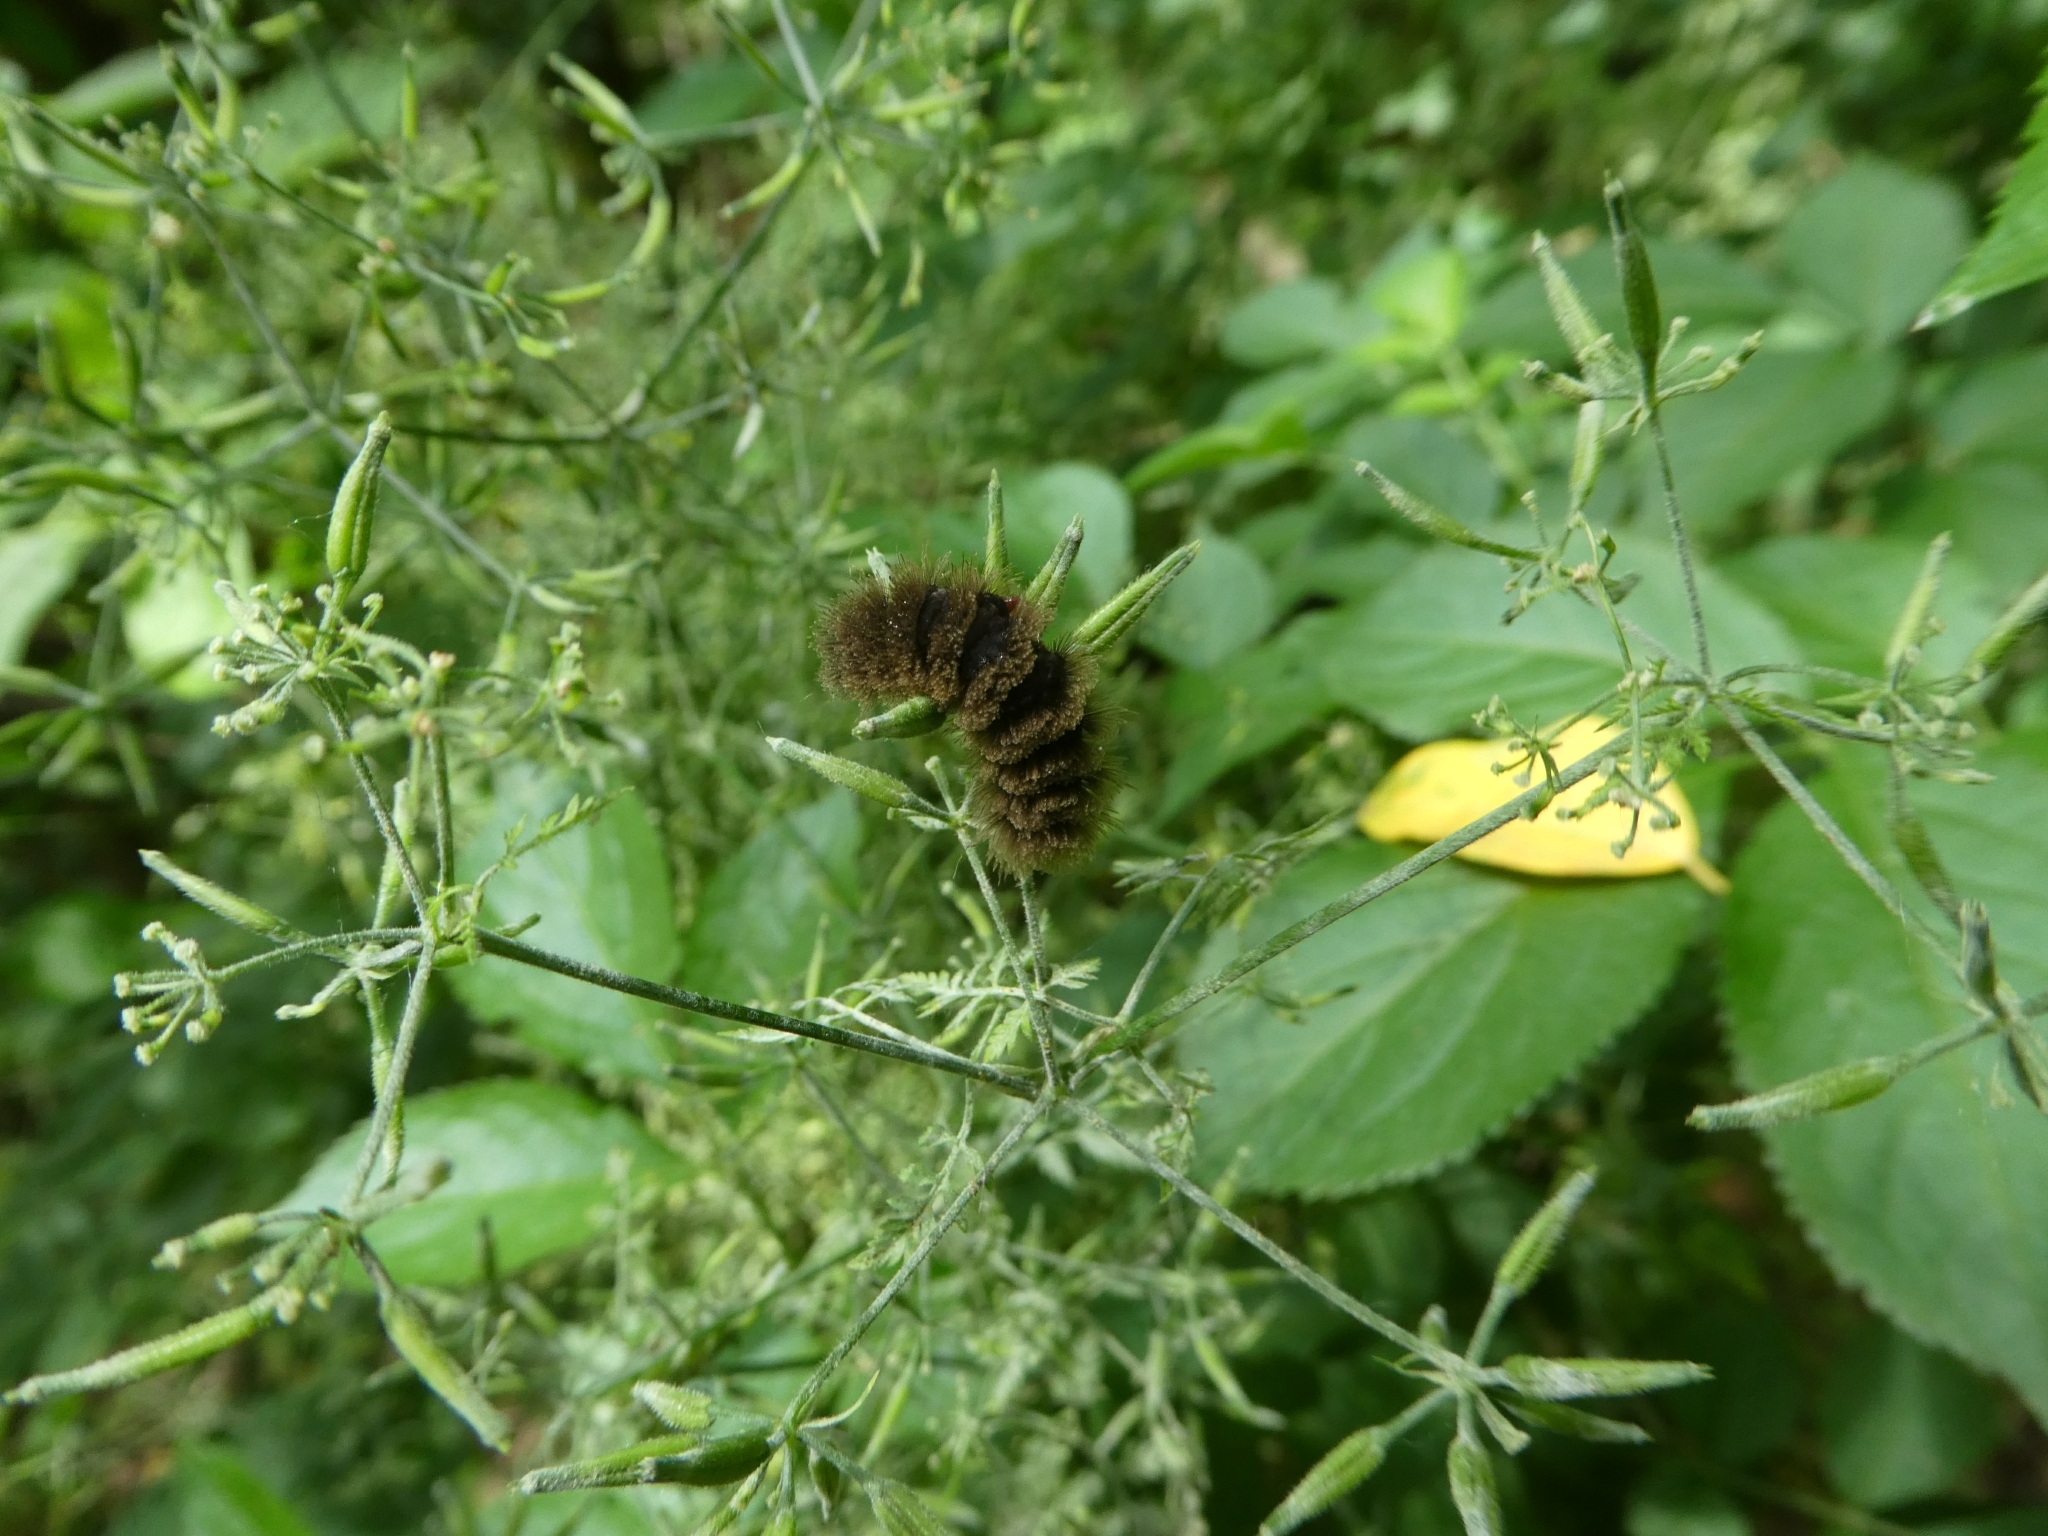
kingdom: Animalia
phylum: Arthropoda
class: Insecta
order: Lepidoptera
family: Erebidae
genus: Amata
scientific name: Amata phegea
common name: Nine-spotted
